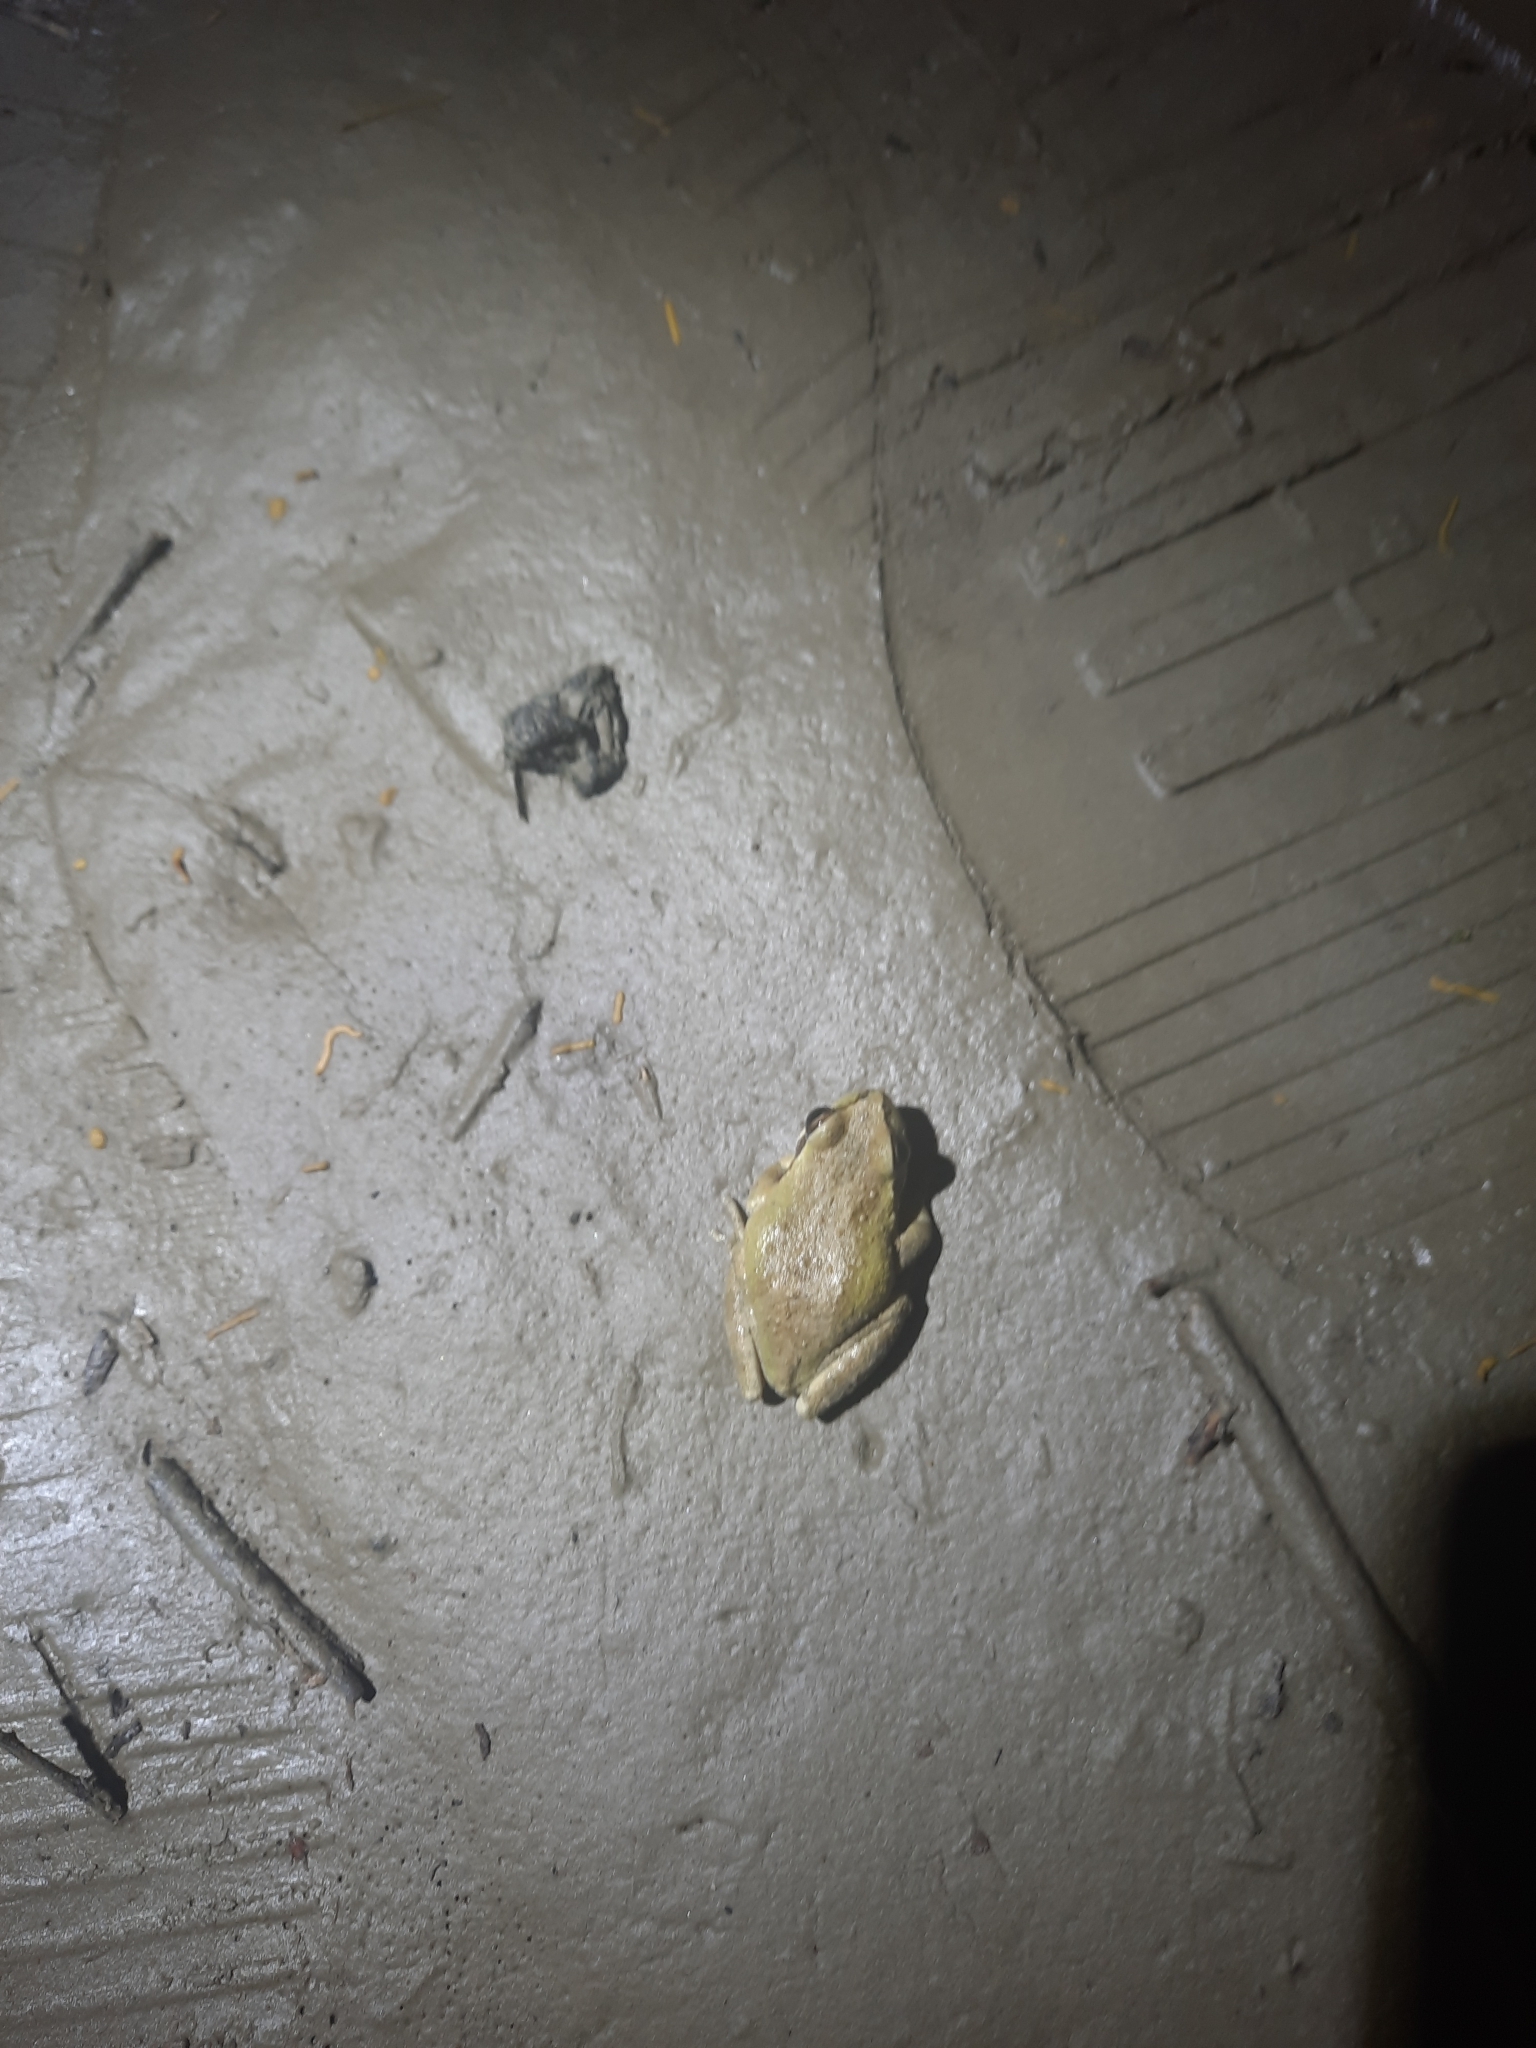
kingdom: Animalia
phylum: Chordata
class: Amphibia
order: Anura
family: Hylidae
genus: Pseudacris
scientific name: Pseudacris regilla
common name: Pacific chorus frog
